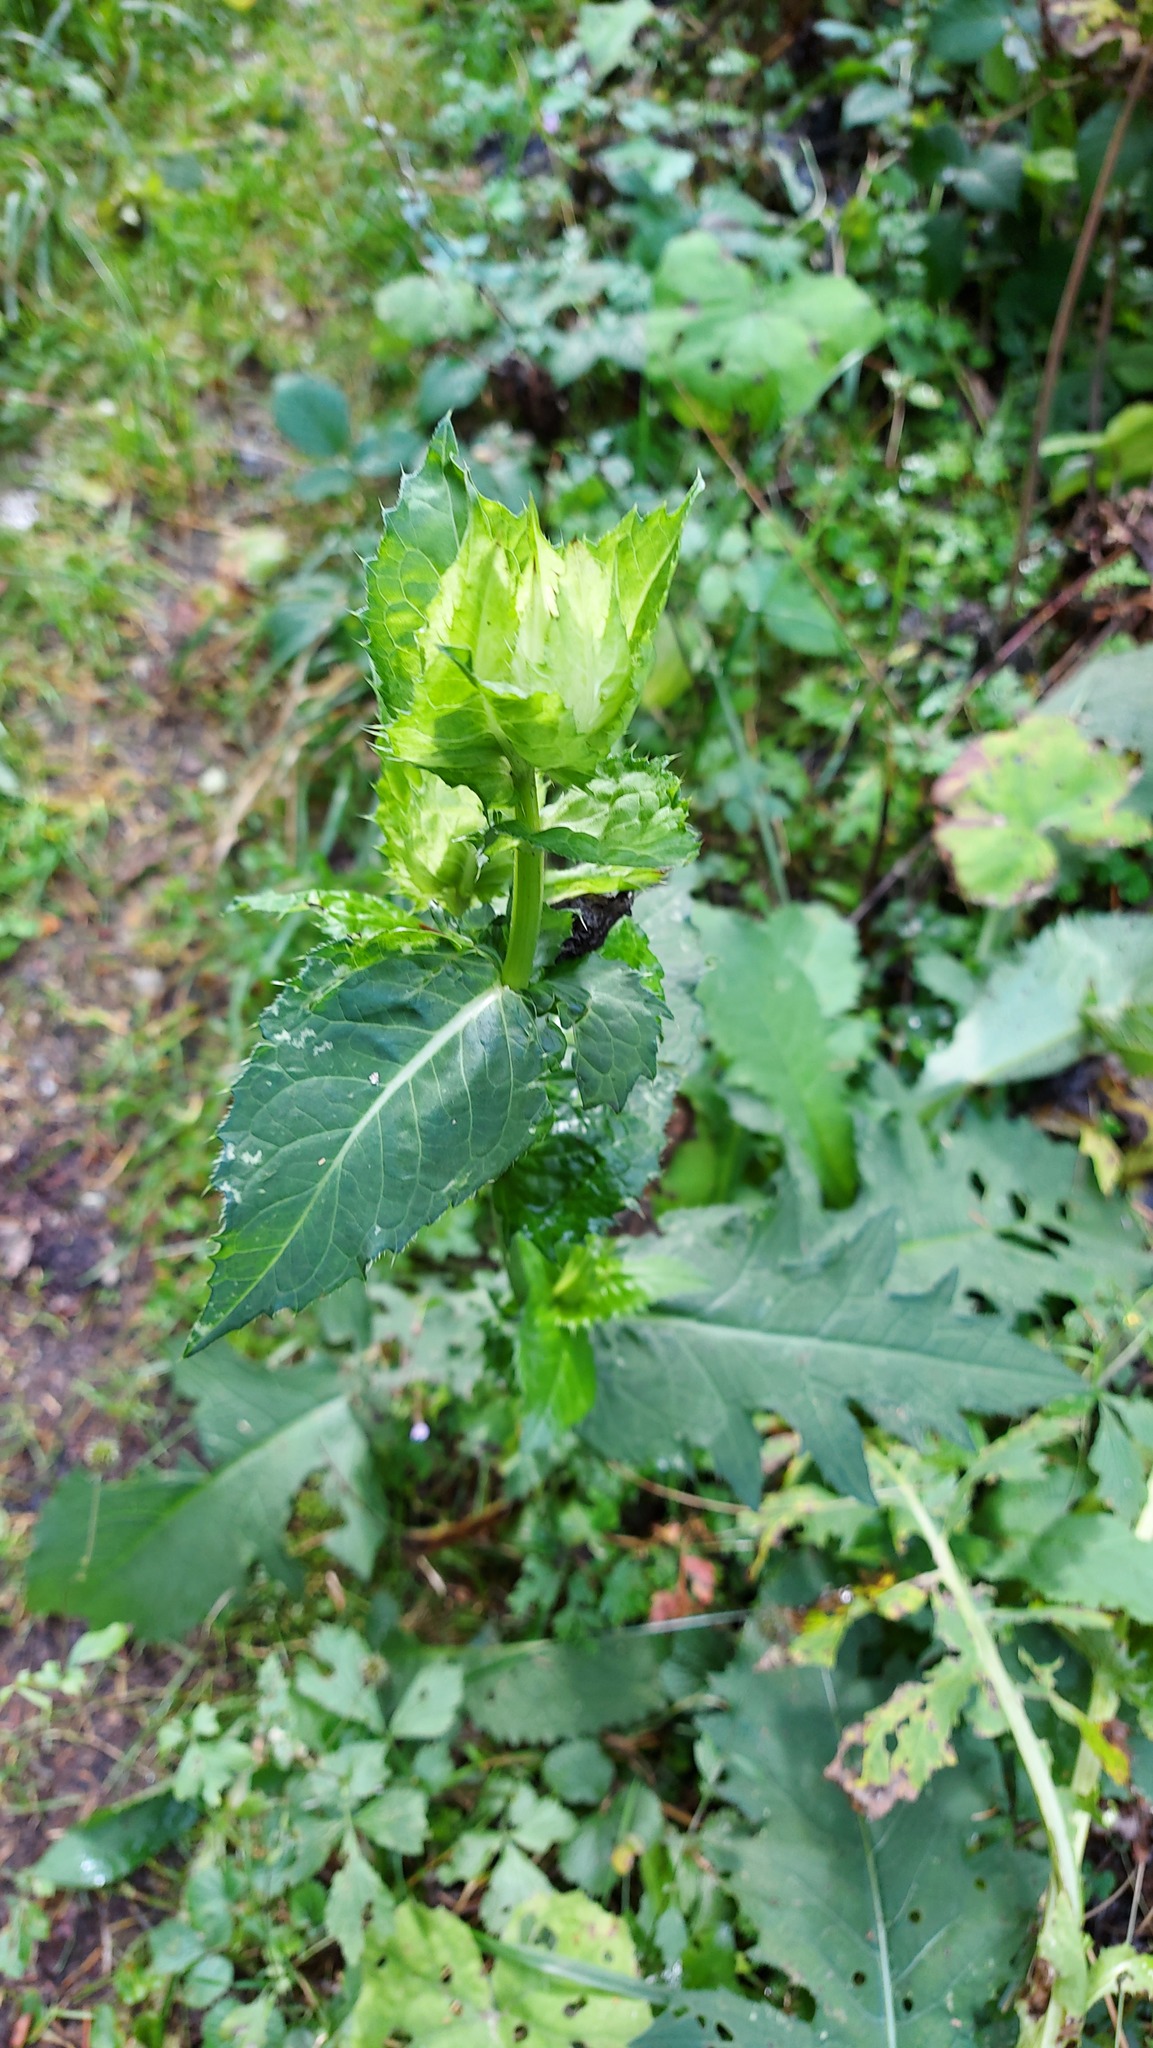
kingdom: Plantae
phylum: Tracheophyta
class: Magnoliopsida
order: Asterales
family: Asteraceae
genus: Cirsium
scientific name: Cirsium oleraceum
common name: Cabbage thistle
